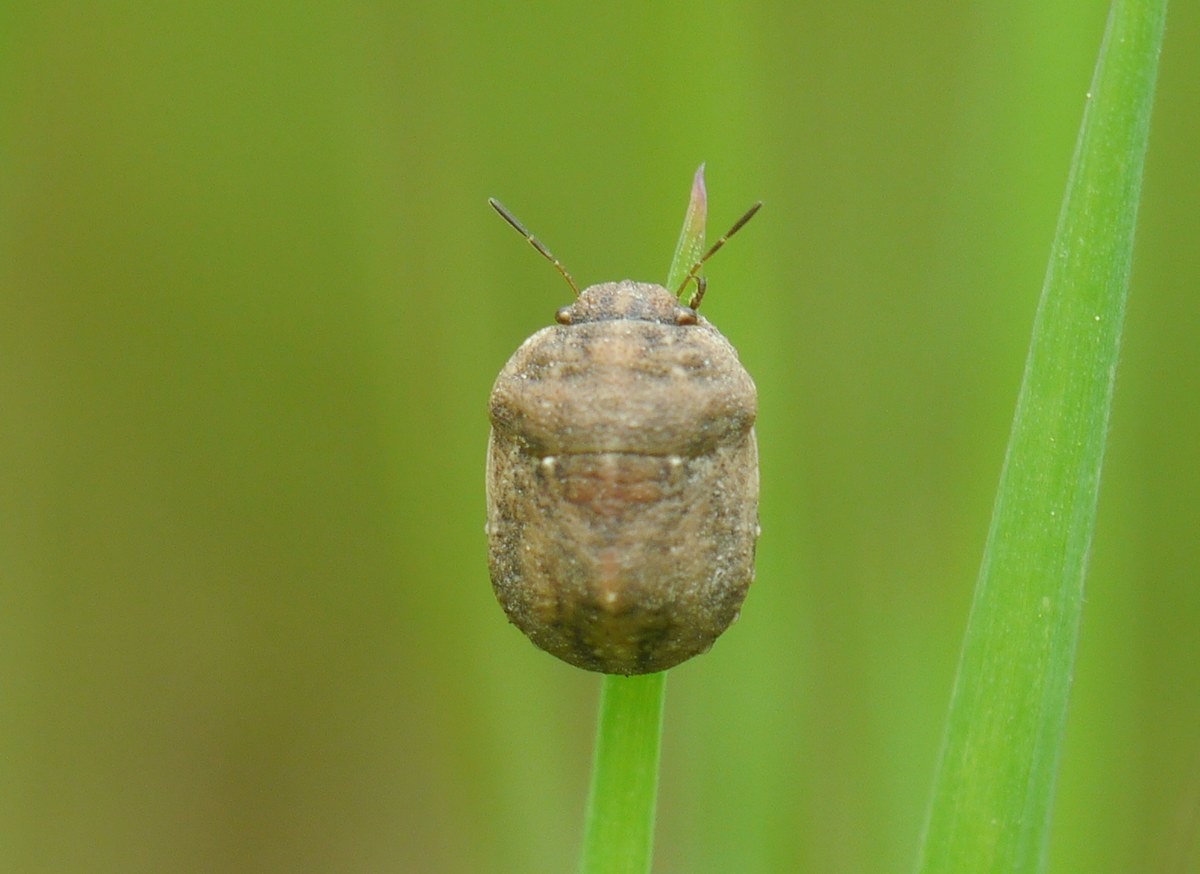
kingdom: Animalia
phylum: Arthropoda
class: Insecta
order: Hemiptera
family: Scutelleridae
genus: Psacasta
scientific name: Psacasta neglecta
